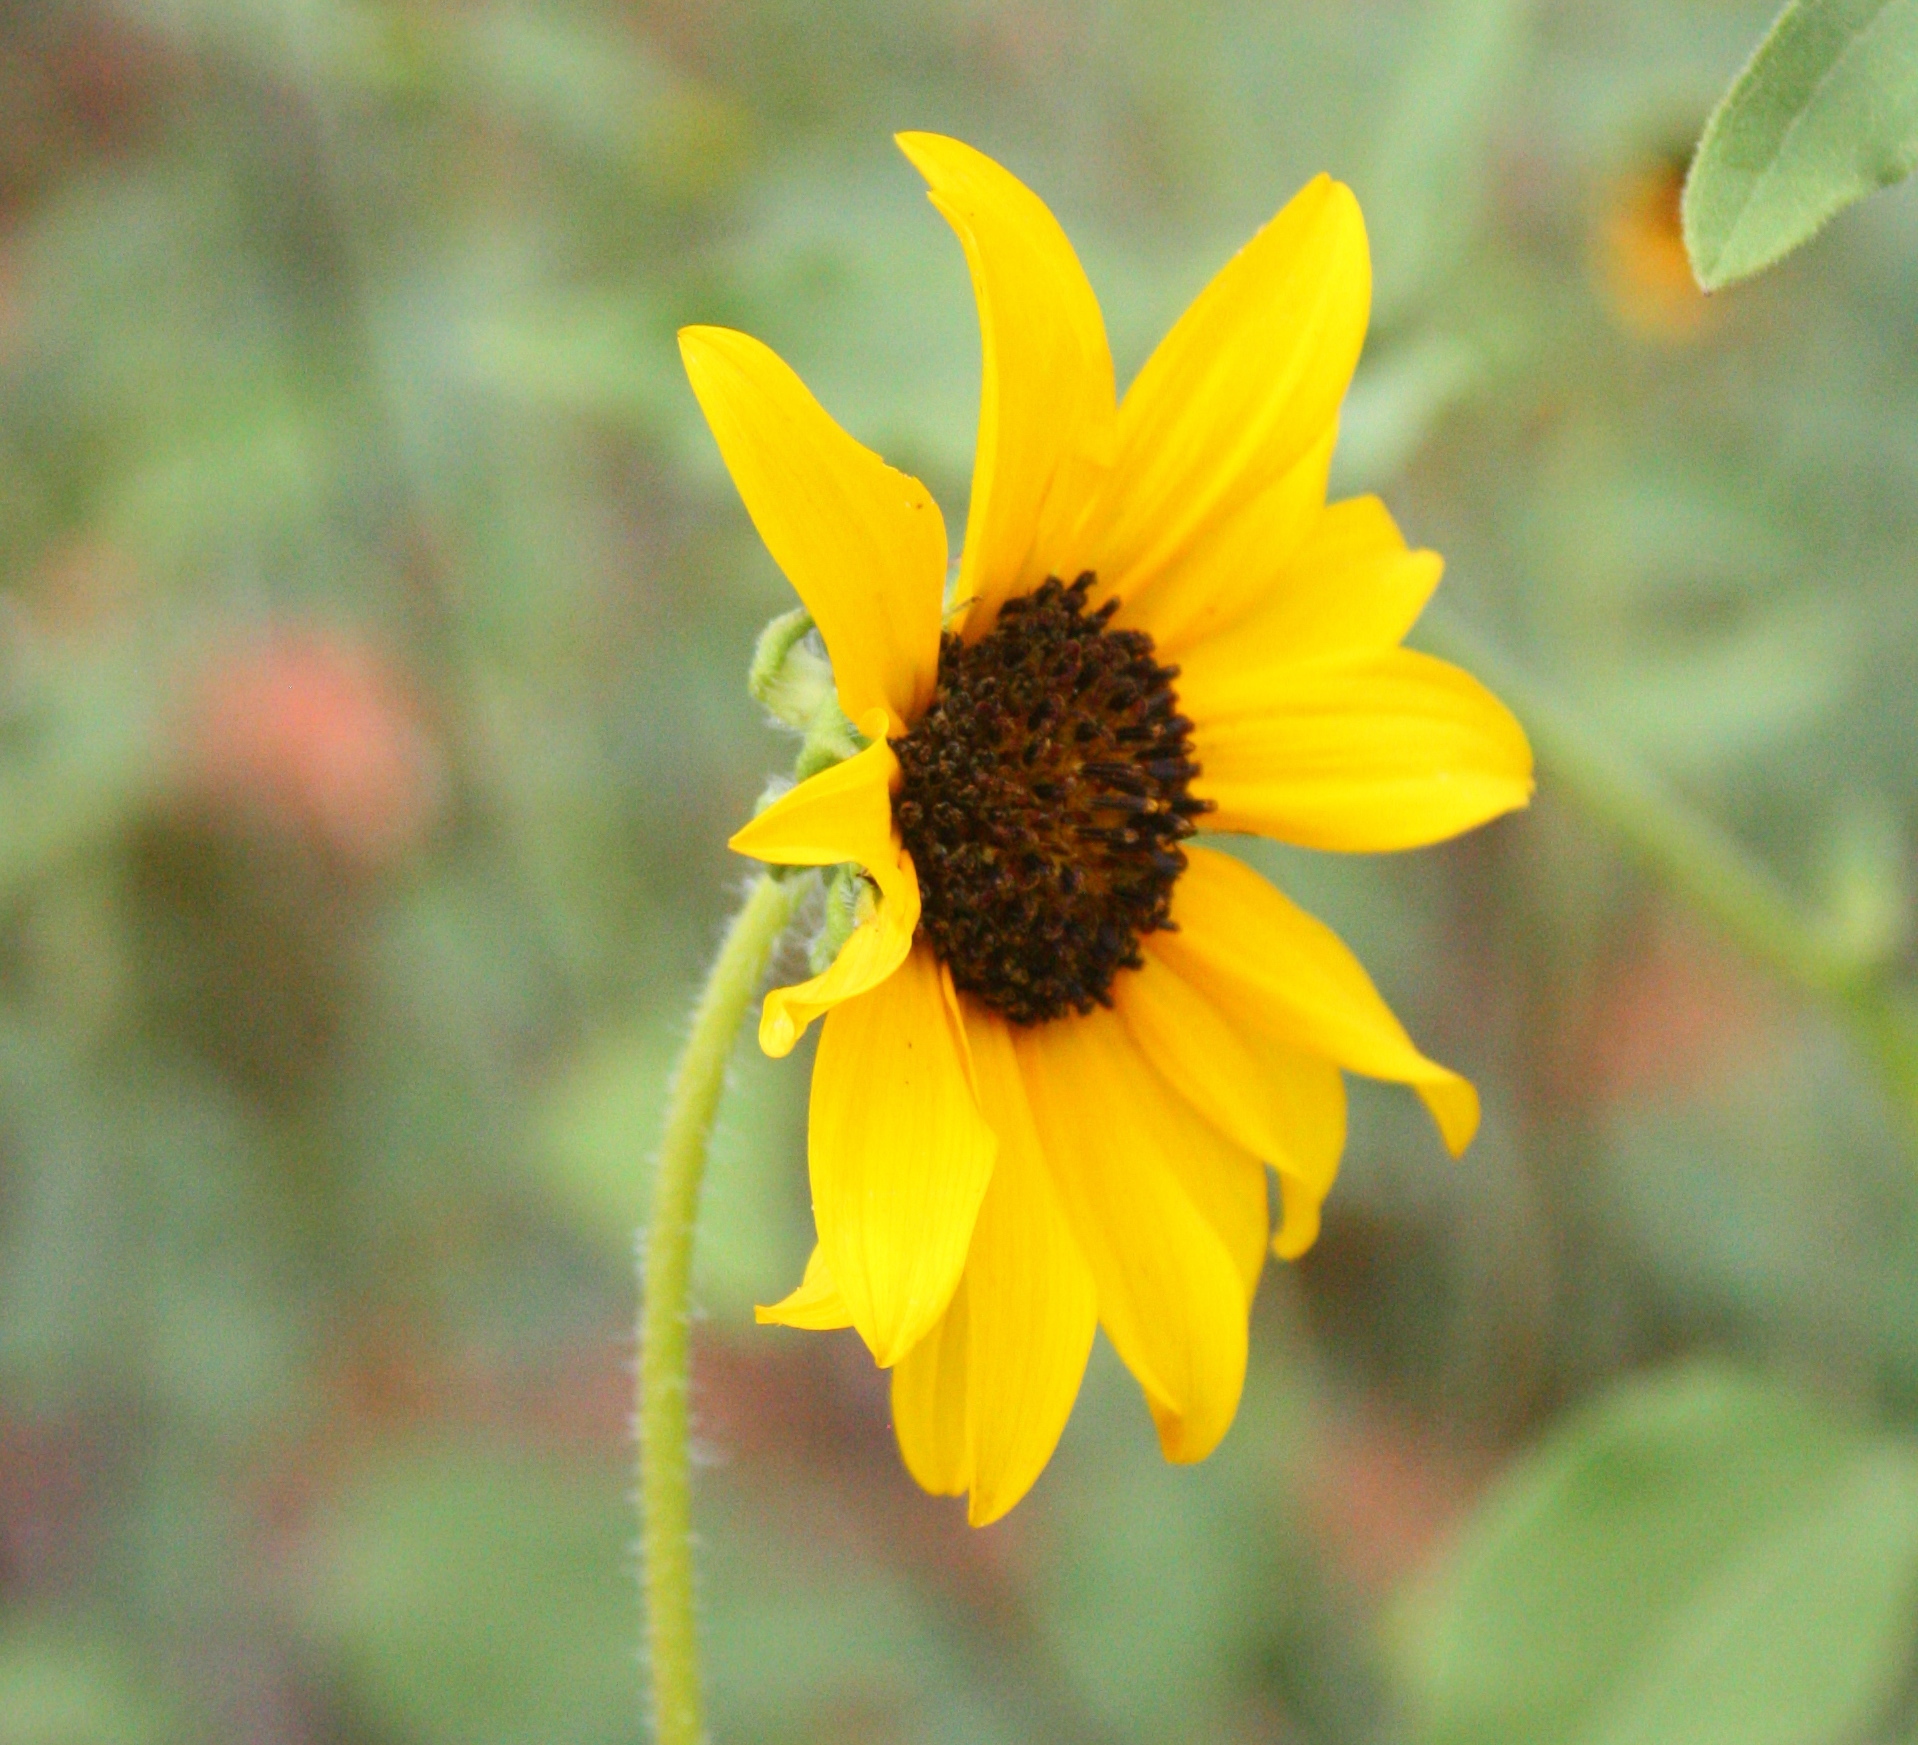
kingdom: Plantae
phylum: Tracheophyta
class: Magnoliopsida
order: Asterales
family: Asteraceae
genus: Helianthus
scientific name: Helianthus annuus
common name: Sunflower
